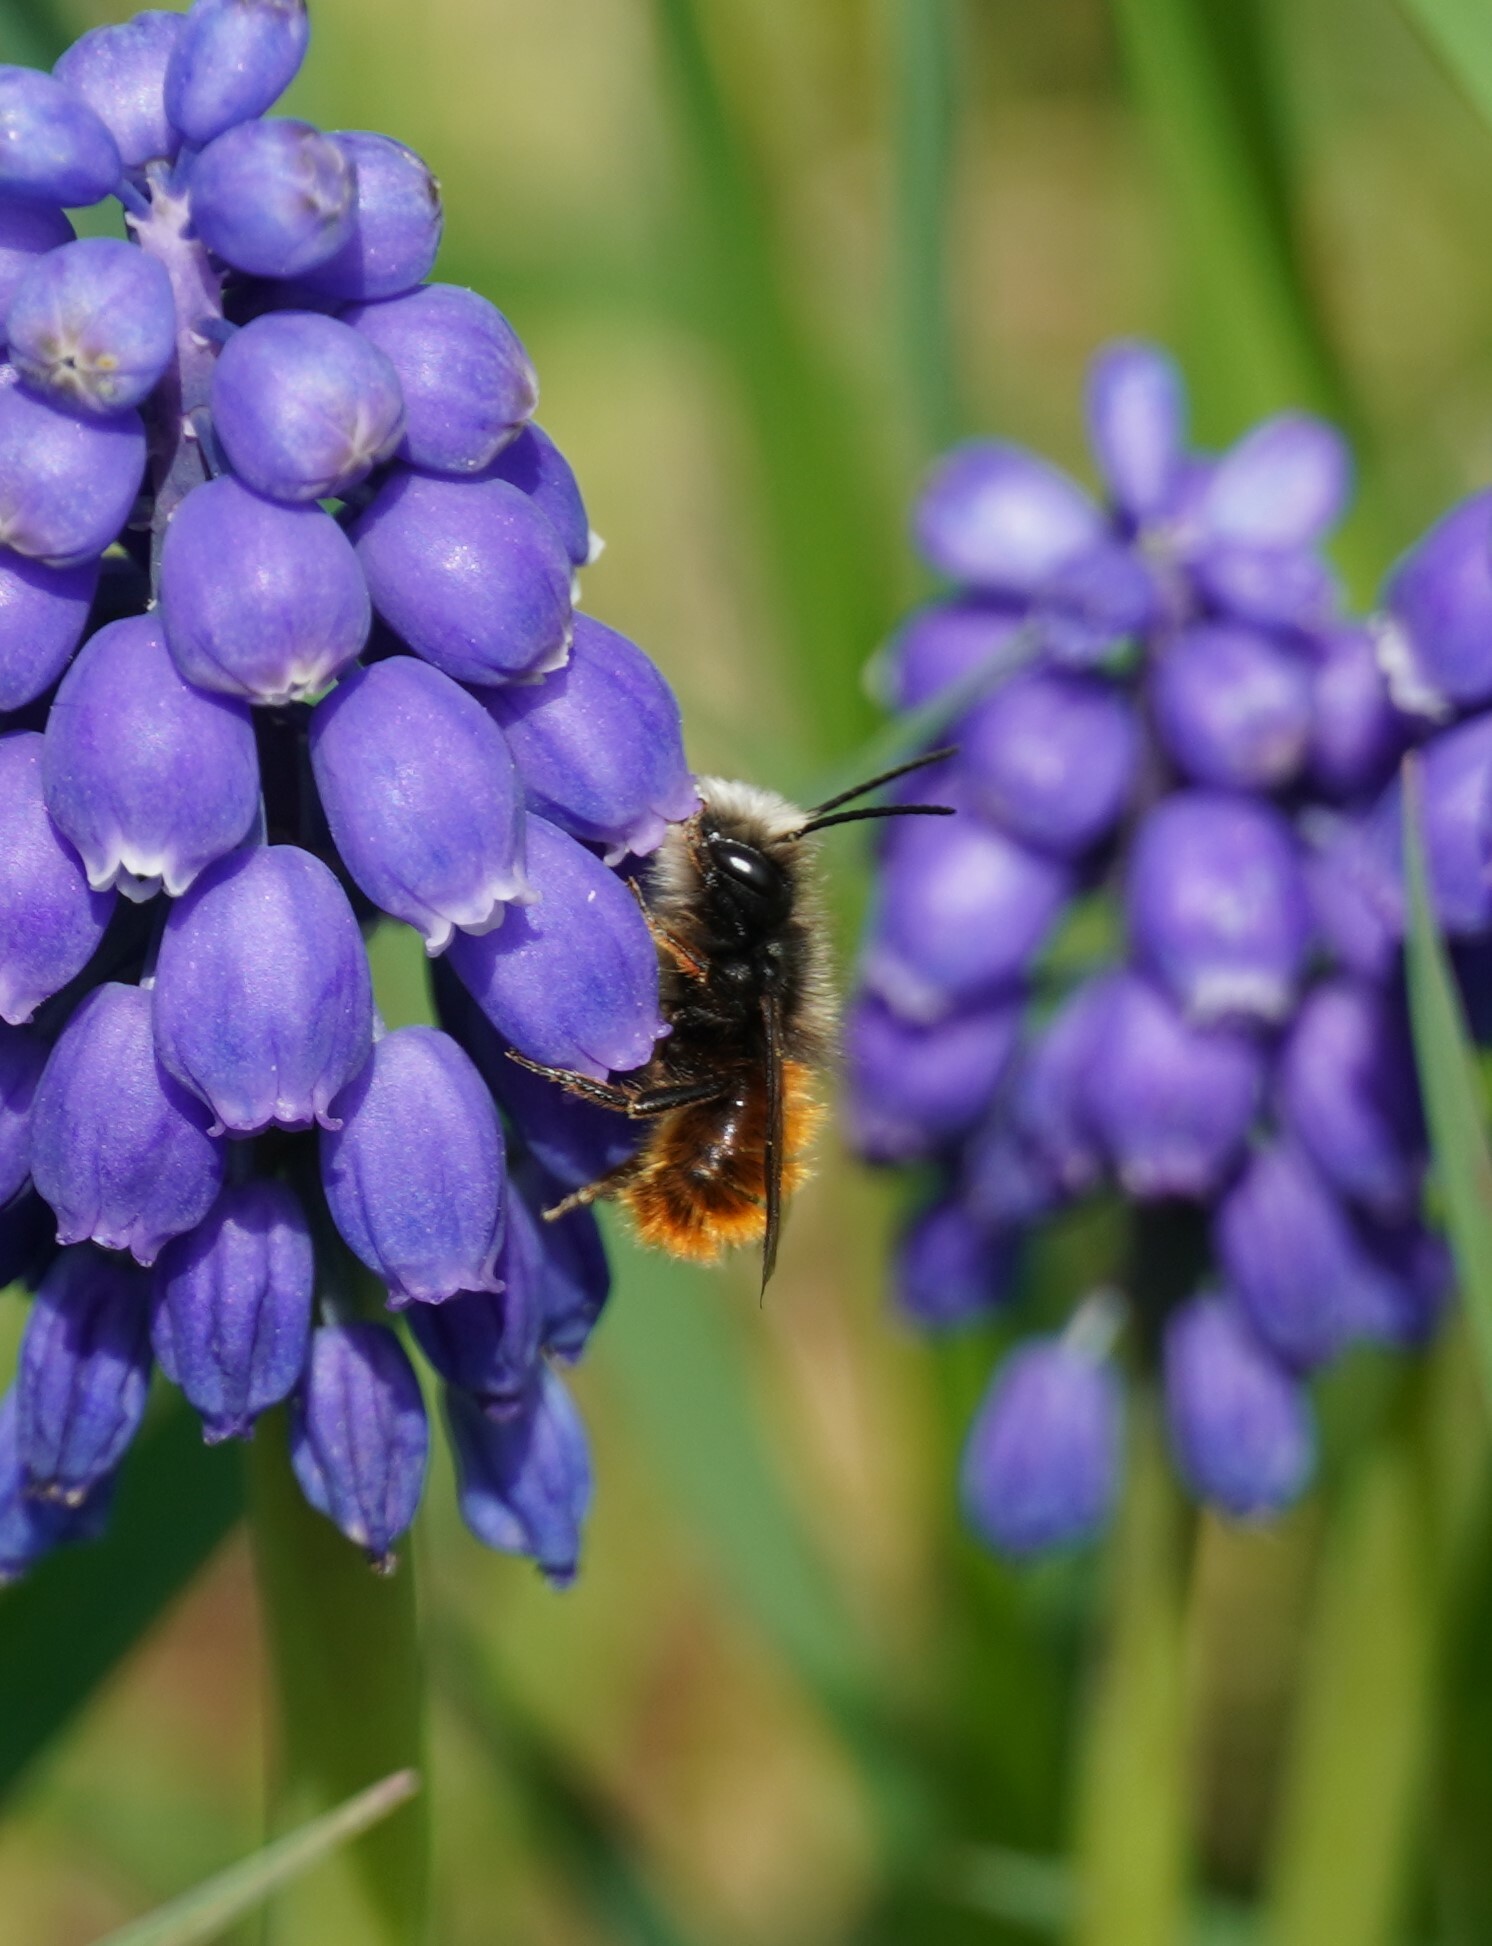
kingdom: Animalia
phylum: Arthropoda
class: Insecta
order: Hymenoptera
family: Megachilidae
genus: Osmia
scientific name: Osmia cornuta
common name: Mason bee
